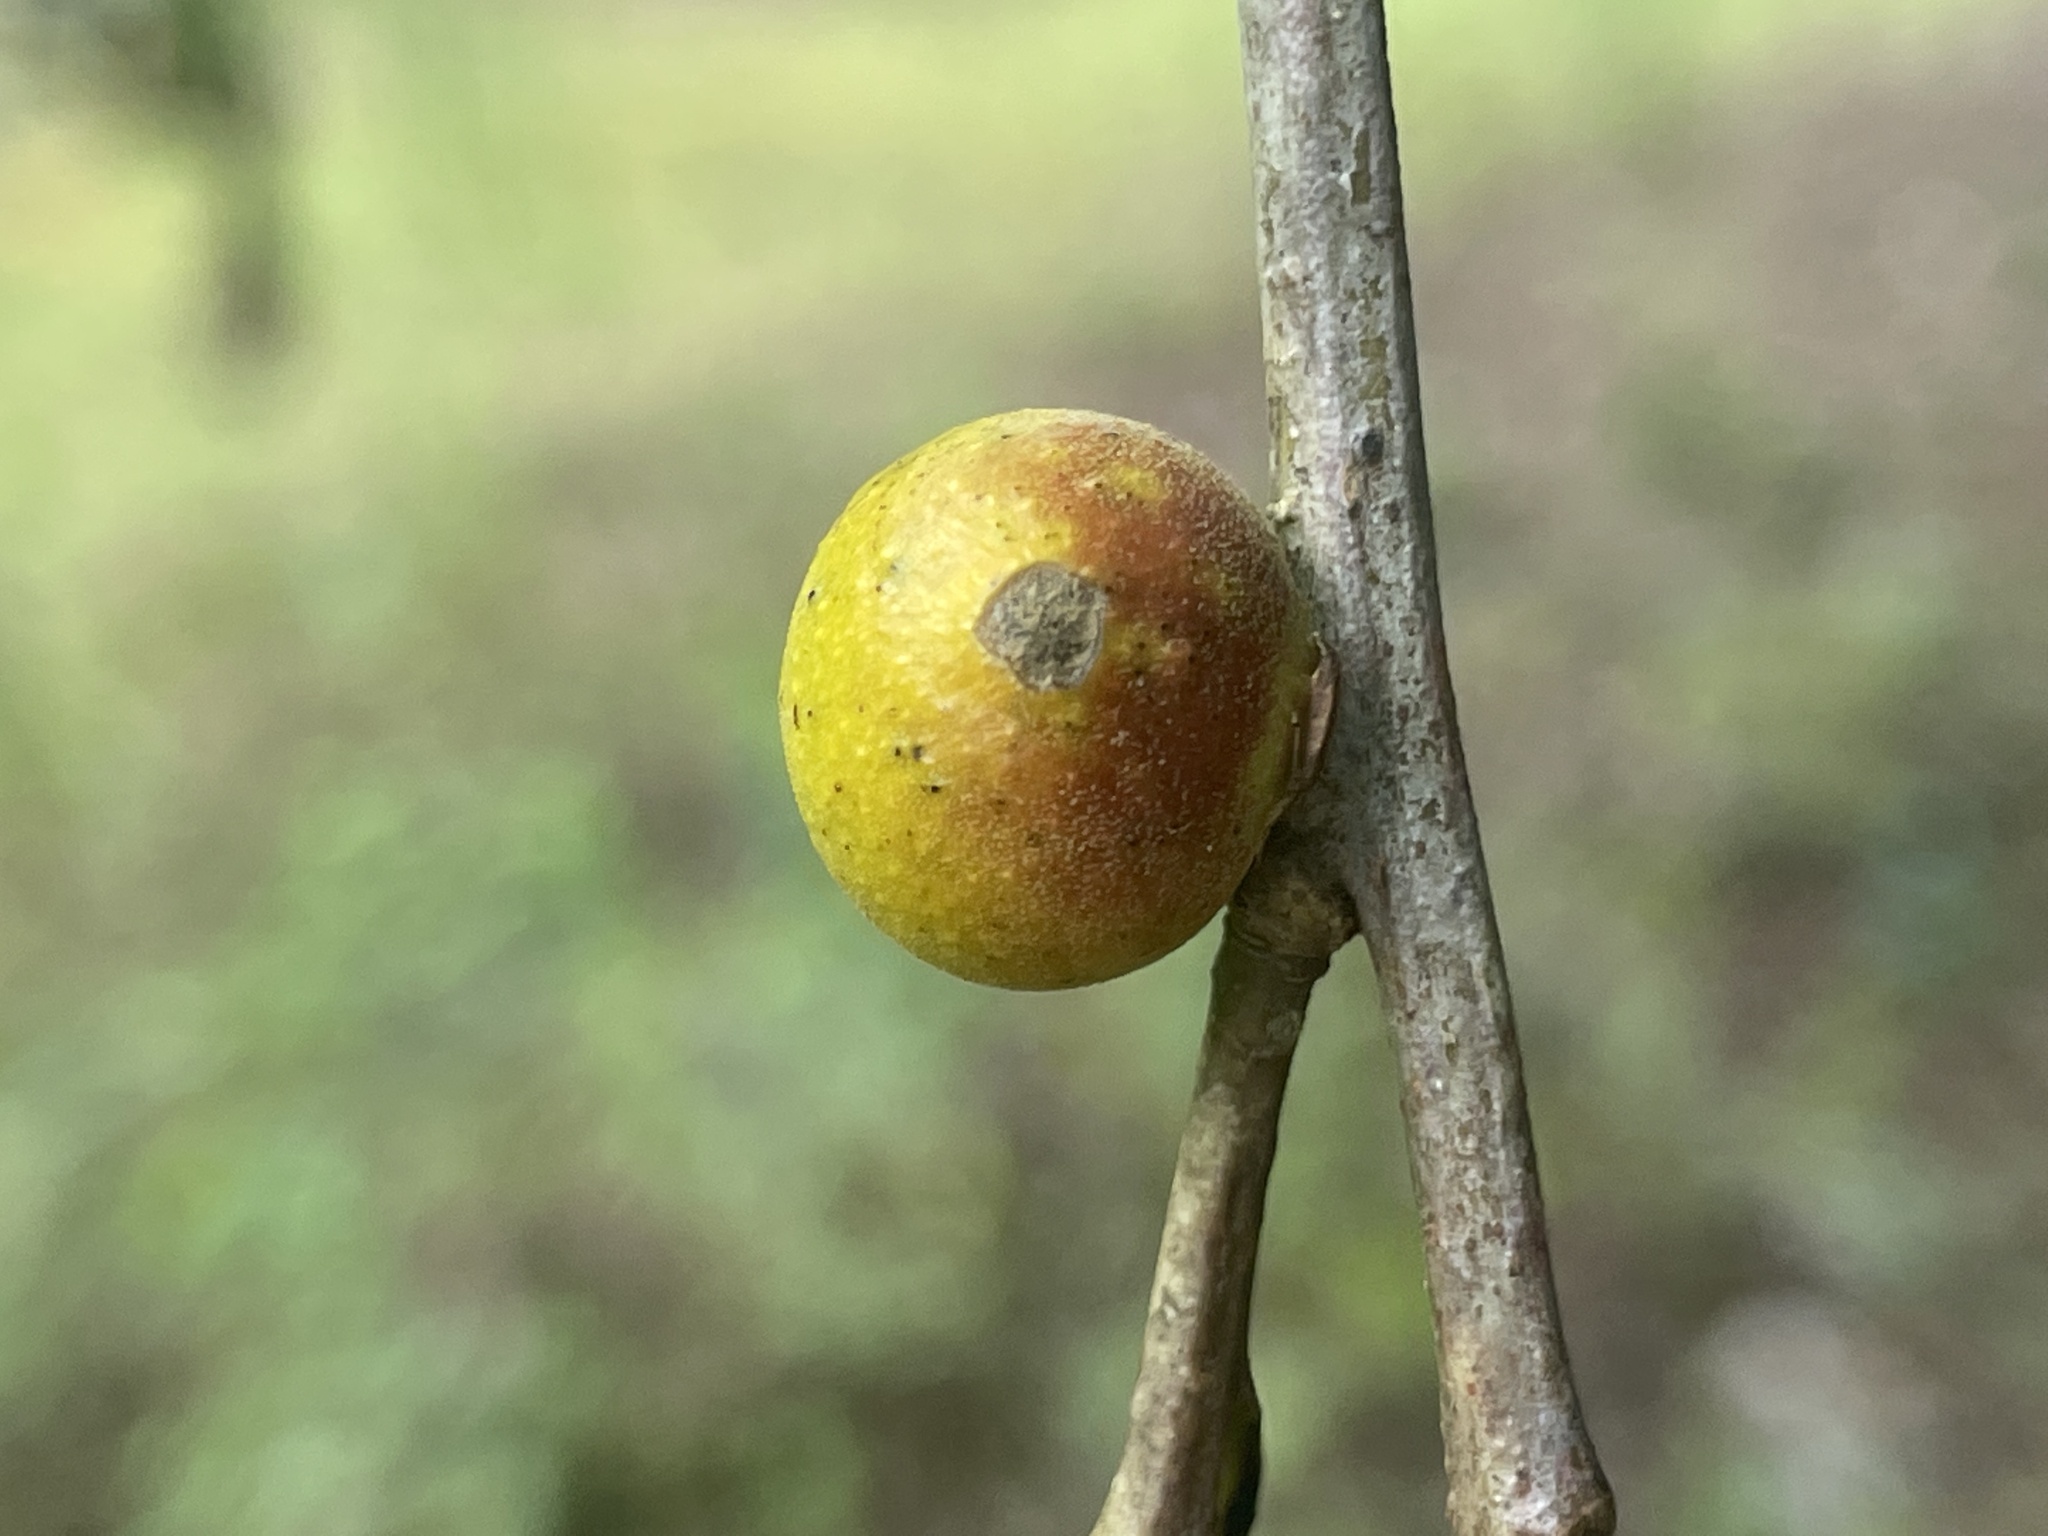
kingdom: Animalia
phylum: Arthropoda
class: Insecta
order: Hymenoptera
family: Cynipidae
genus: Disholcaspis
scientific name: Disholcaspis quercusglobulus
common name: Round bullet gall wasp
